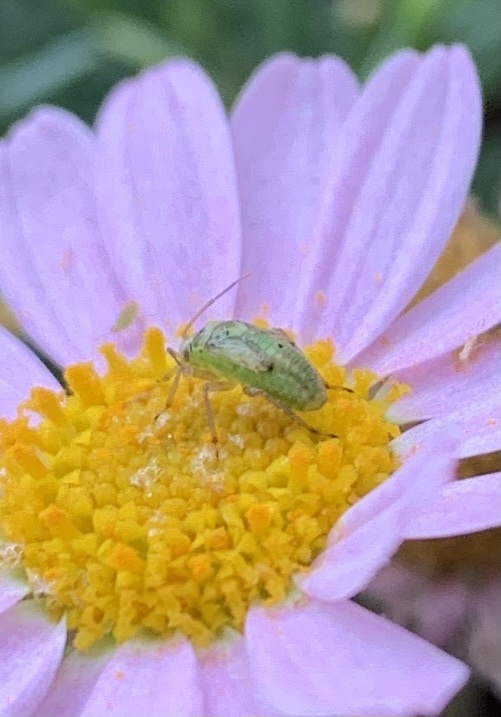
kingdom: Animalia
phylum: Arthropoda
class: Insecta
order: Hemiptera
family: Miridae
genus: Taylorilygus
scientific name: Taylorilygus apicalis
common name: Plant bug
